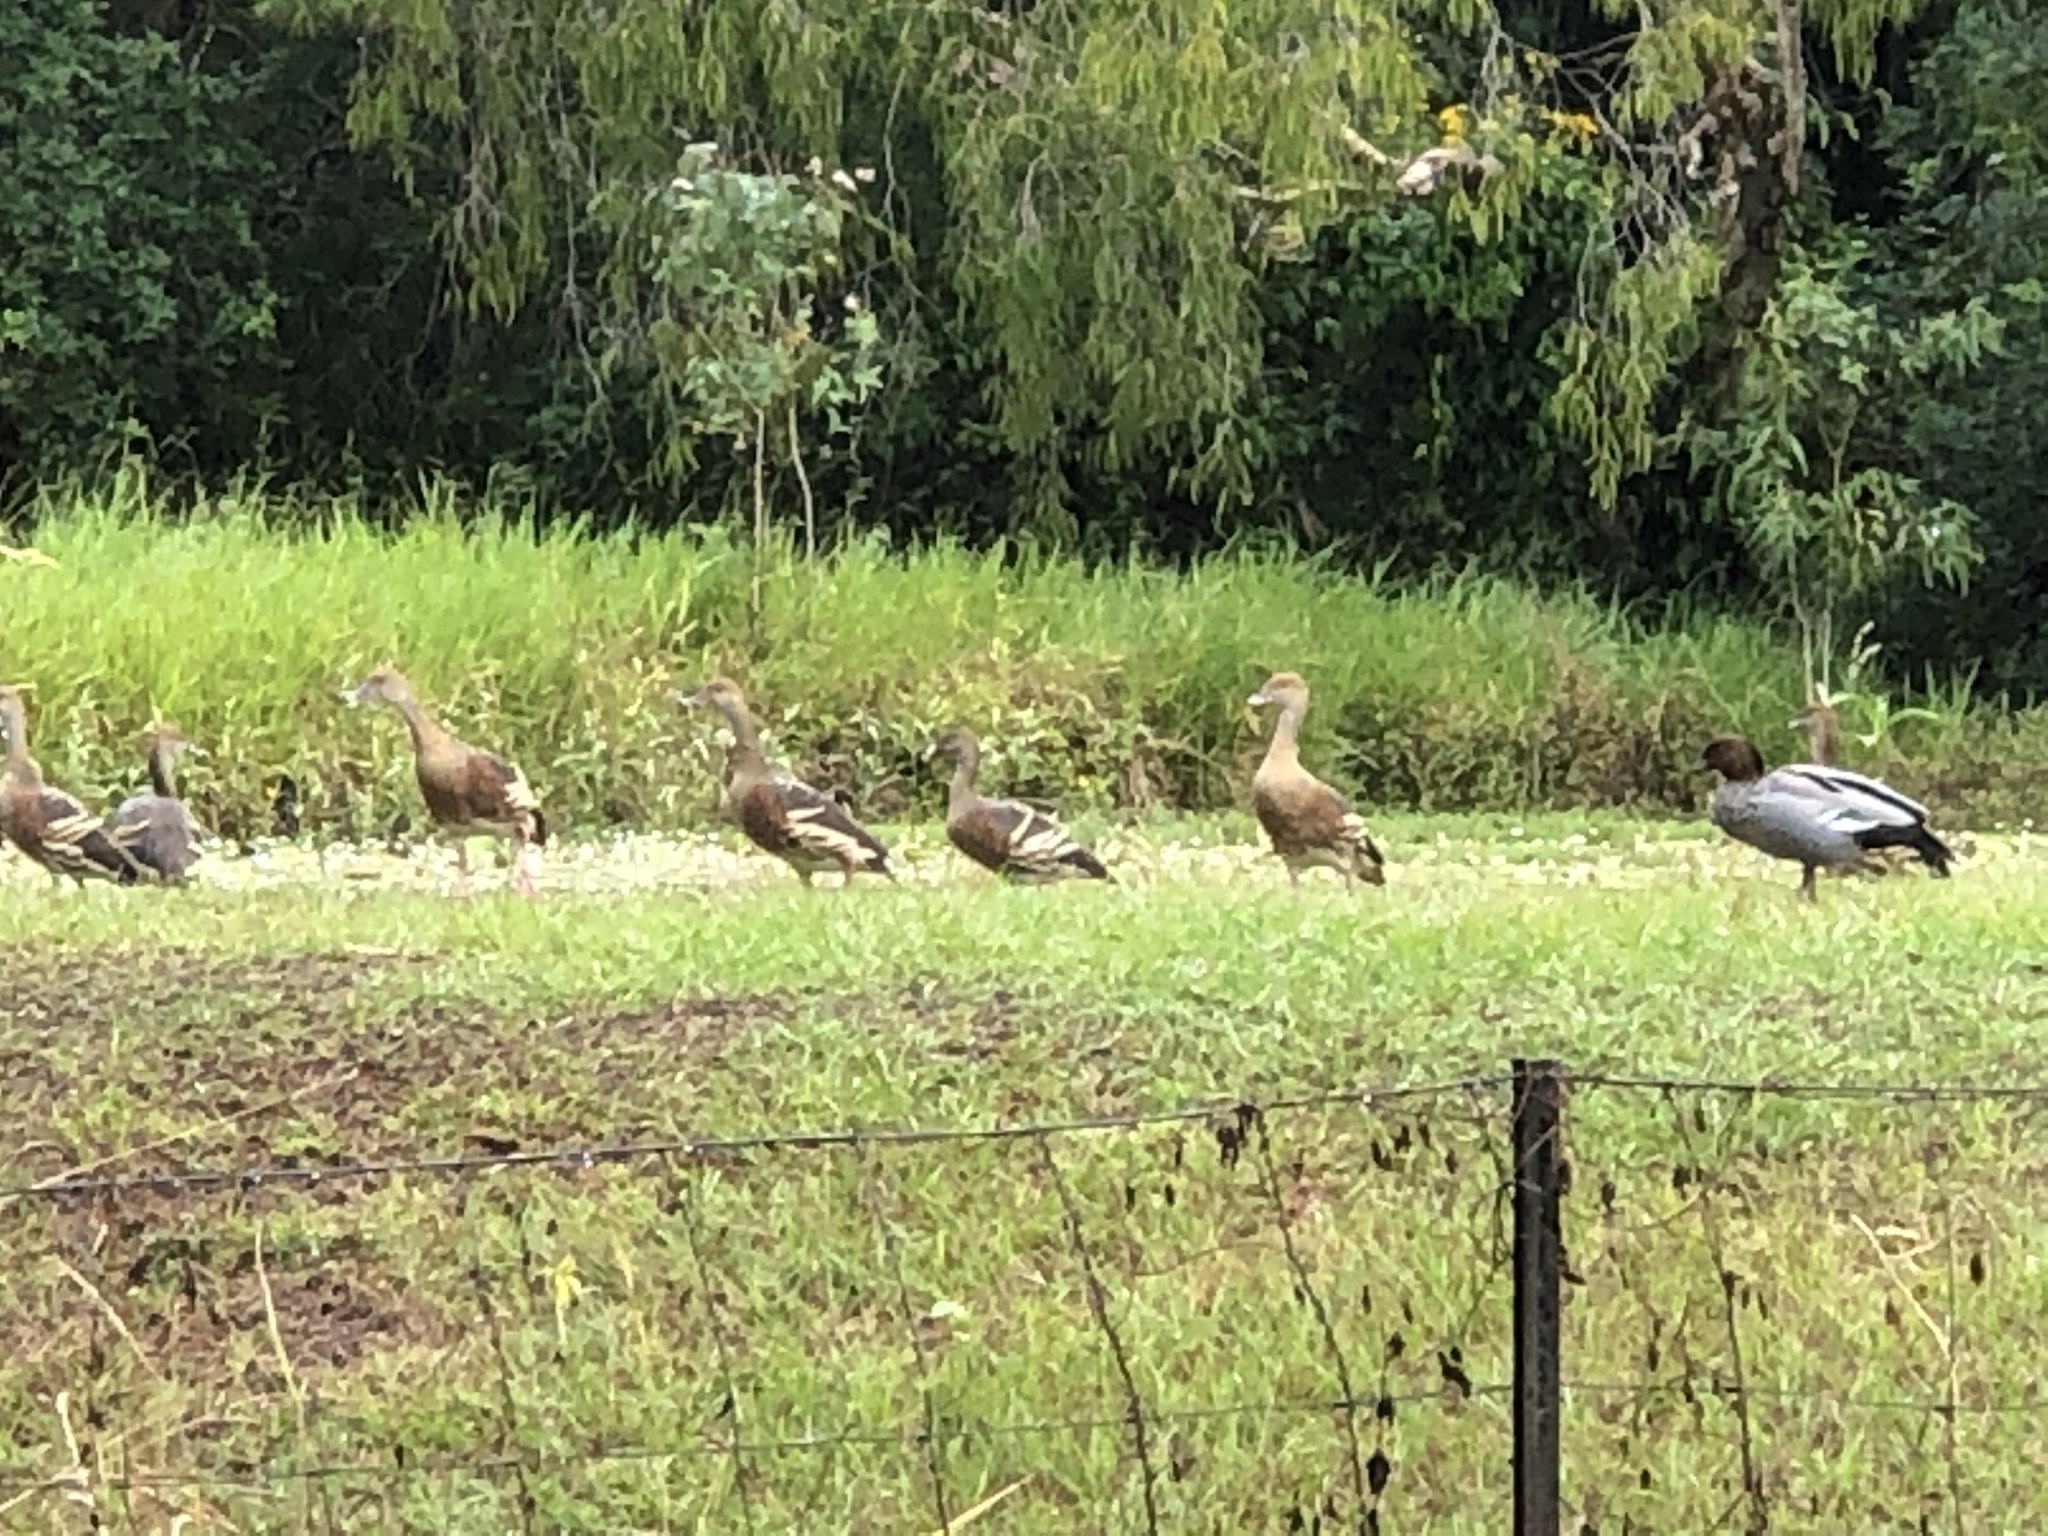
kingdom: Animalia
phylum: Chordata
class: Aves
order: Anseriformes
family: Anatidae
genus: Dendrocygna
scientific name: Dendrocygna eytoni
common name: Plumed whistling-duck
